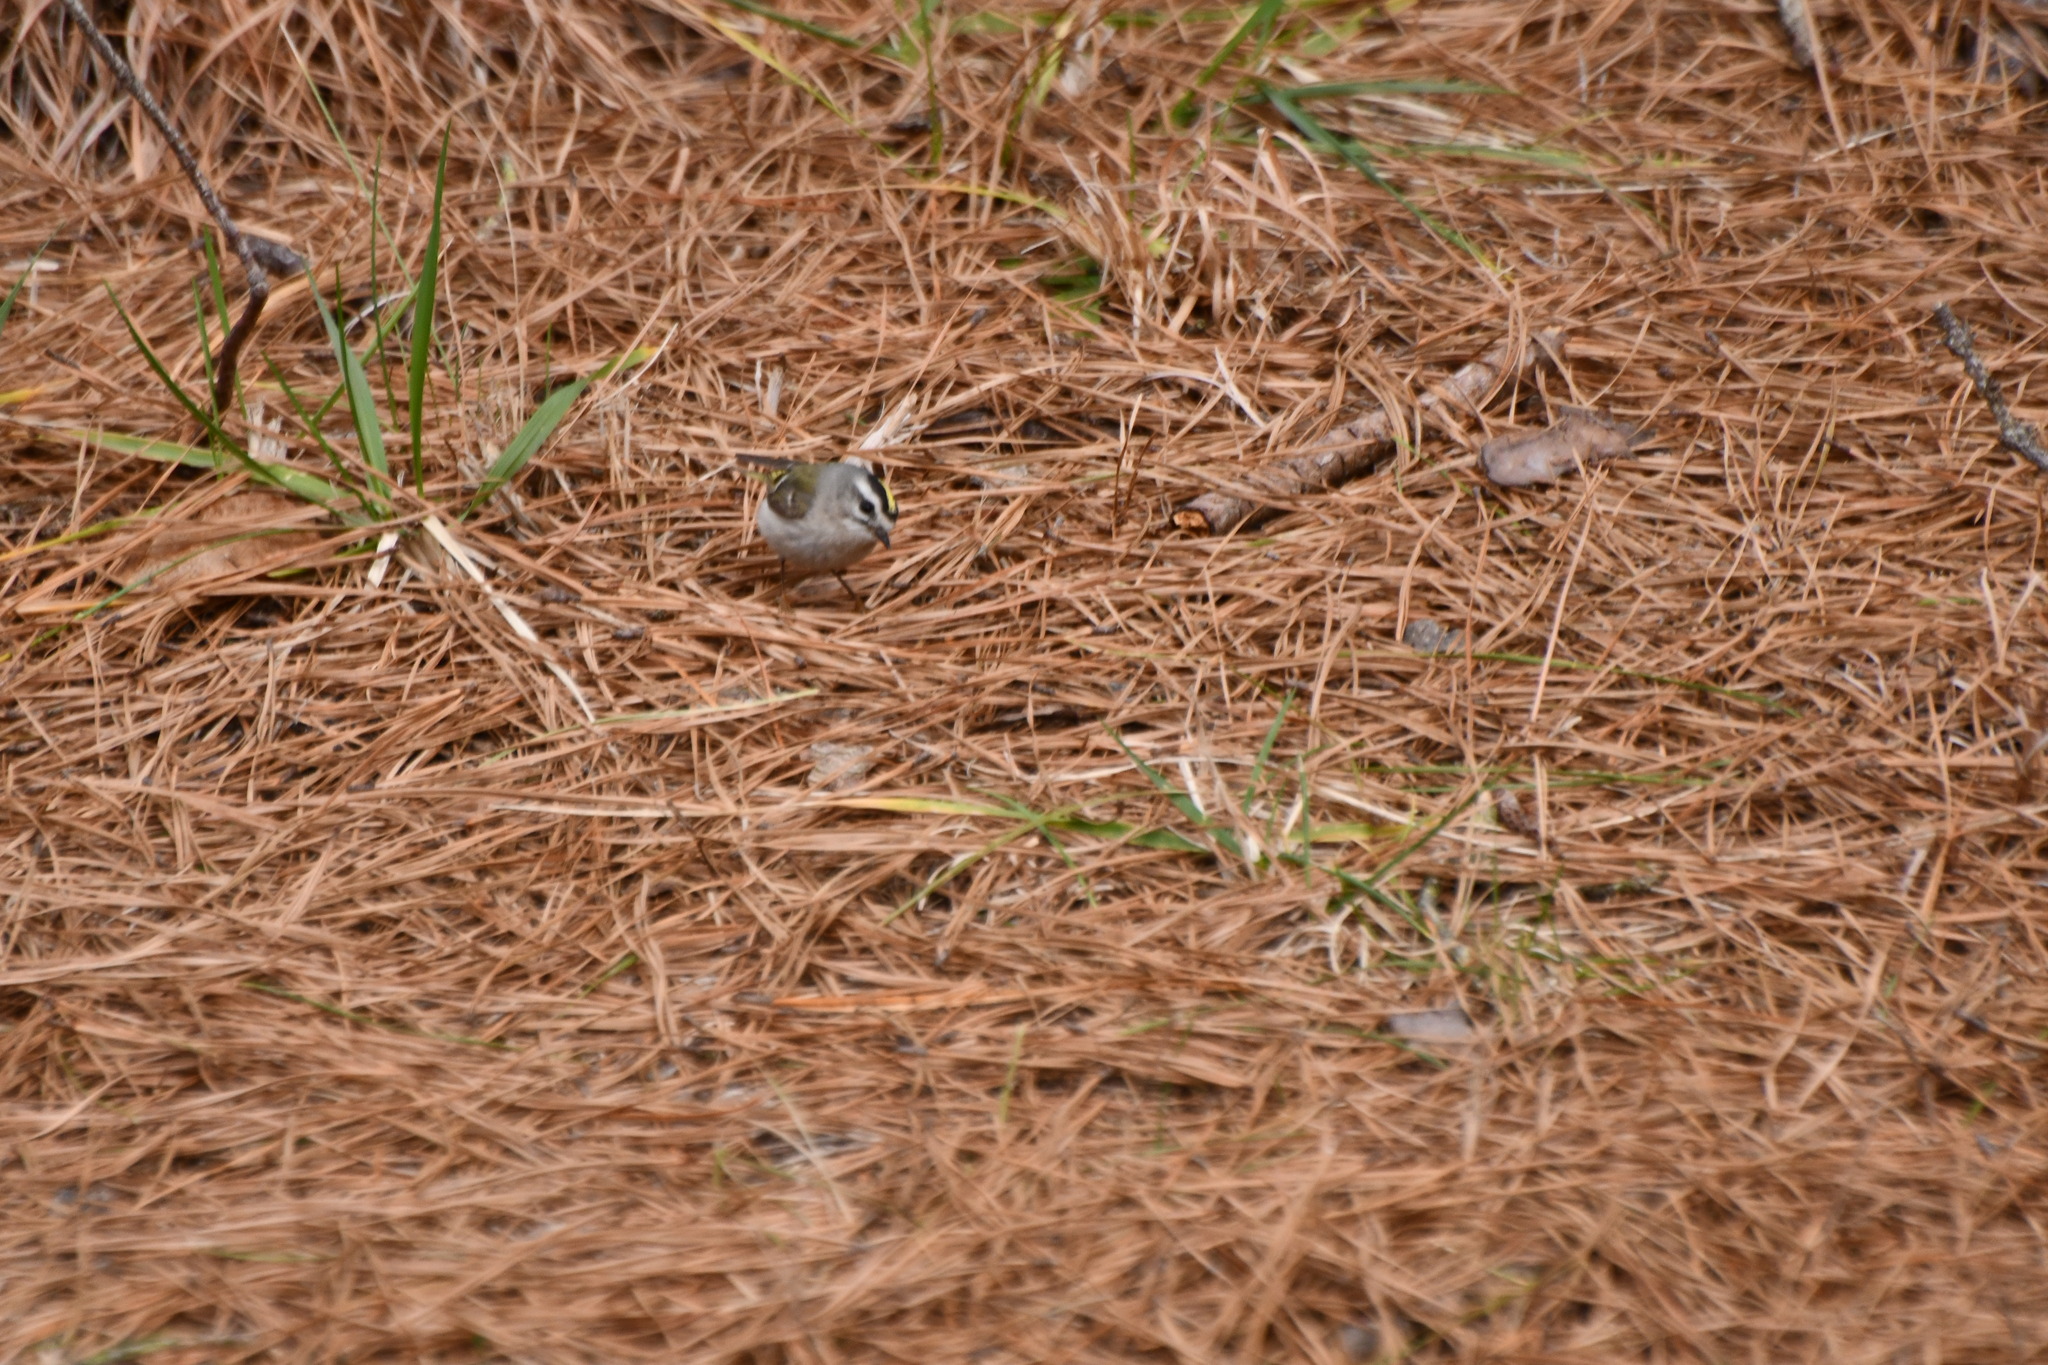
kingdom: Animalia
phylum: Chordata
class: Aves
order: Passeriformes
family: Regulidae
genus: Regulus
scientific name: Regulus satrapa
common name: Golden-crowned kinglet
